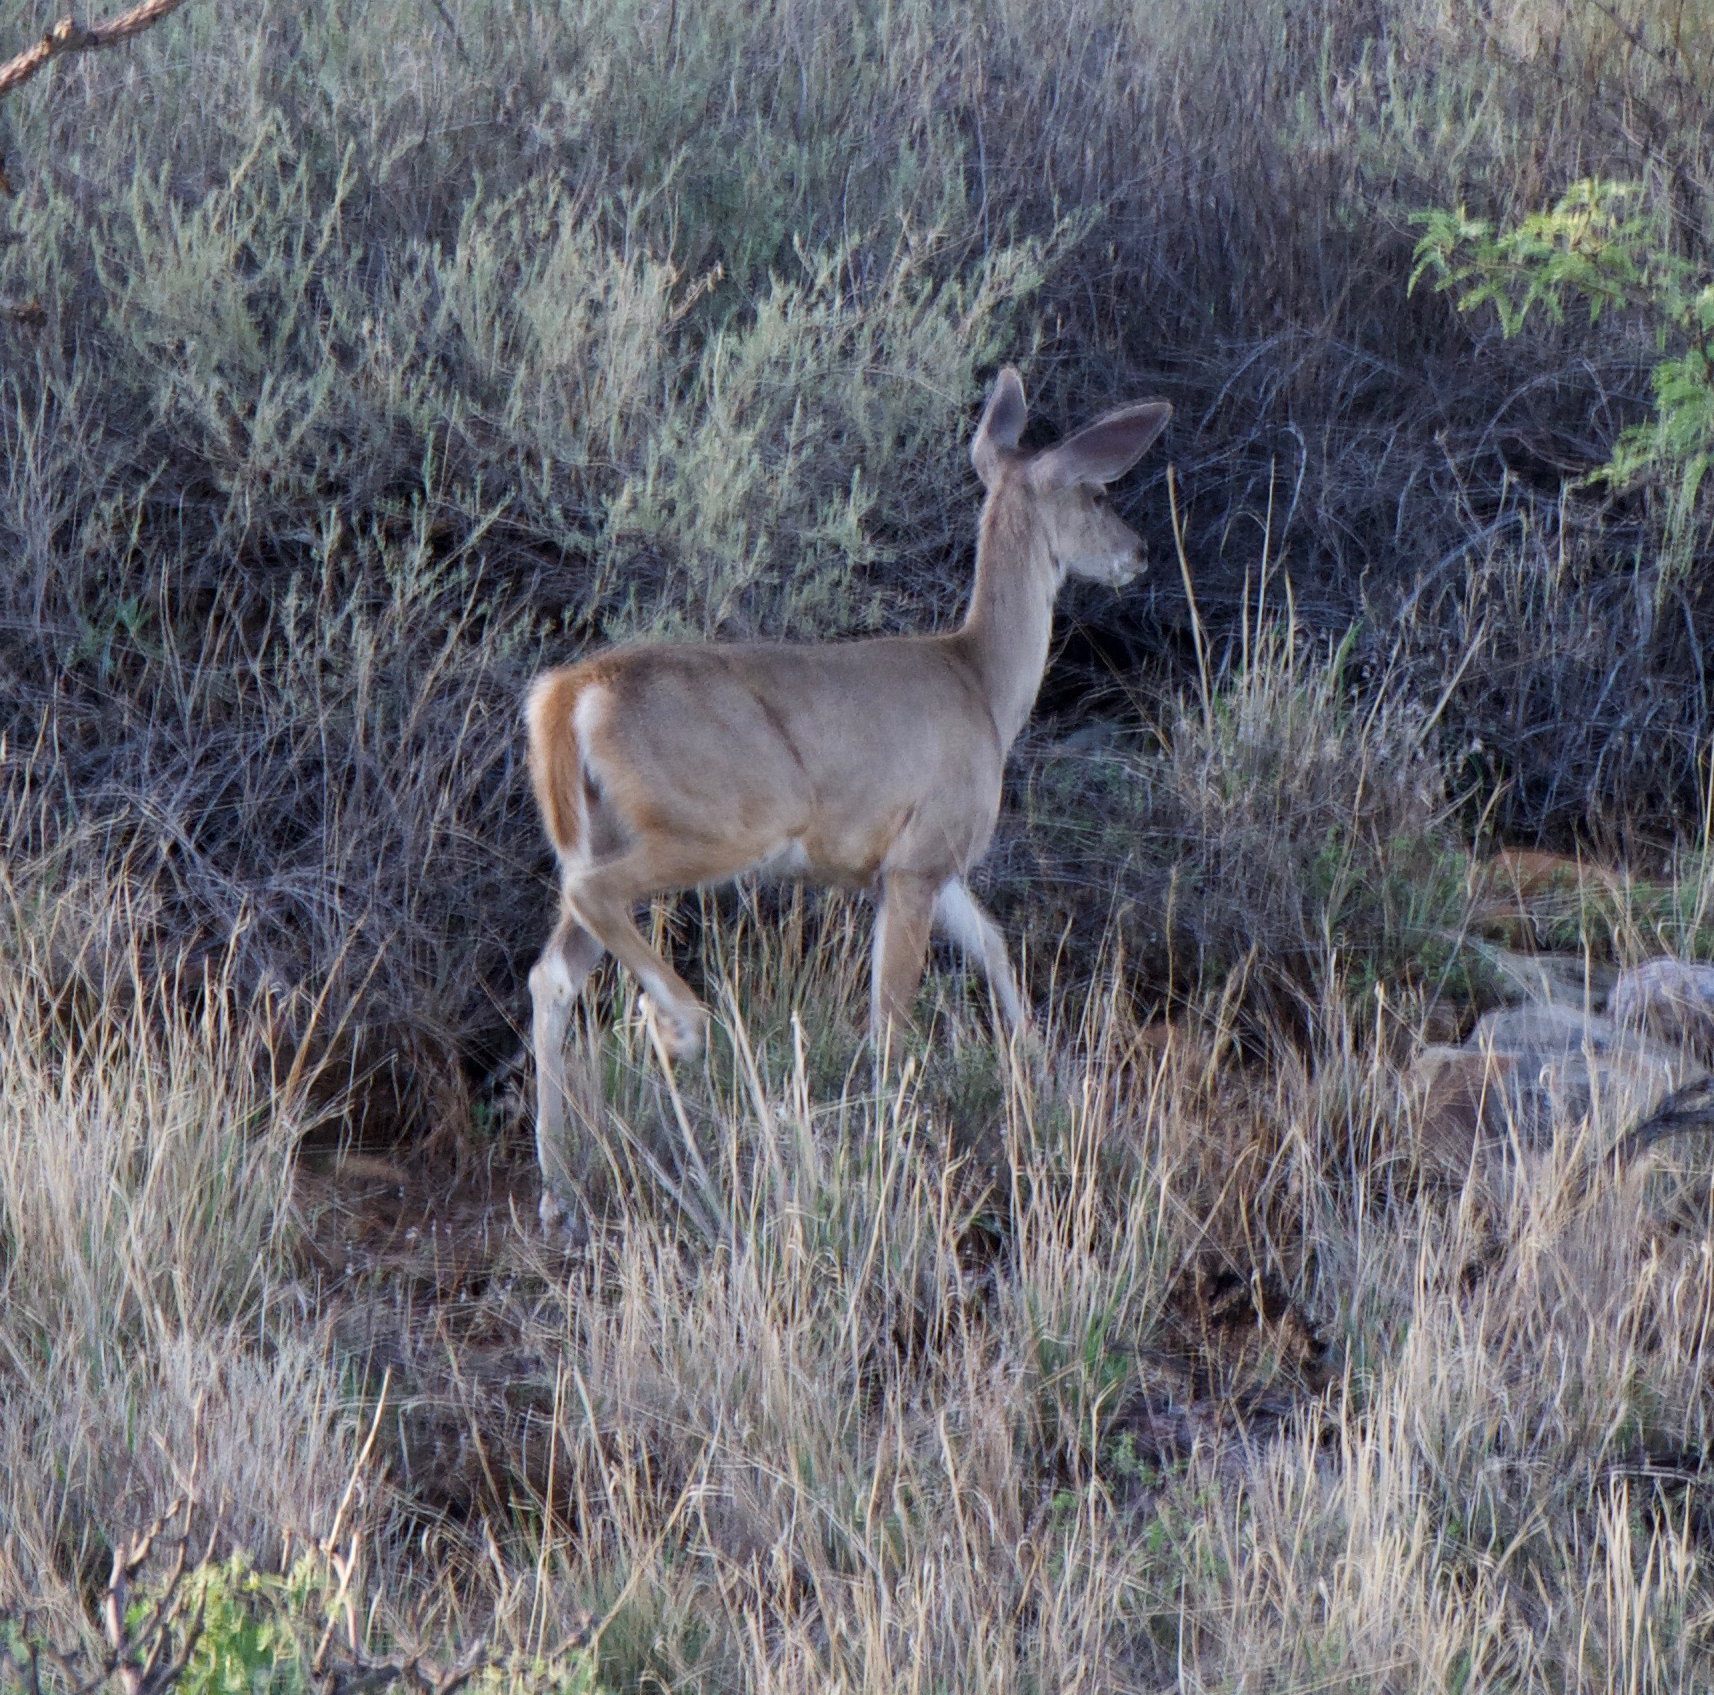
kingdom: Animalia
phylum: Chordata
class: Mammalia
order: Artiodactyla
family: Cervidae
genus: Odocoileus
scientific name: Odocoileus virginianus
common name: White-tailed deer
